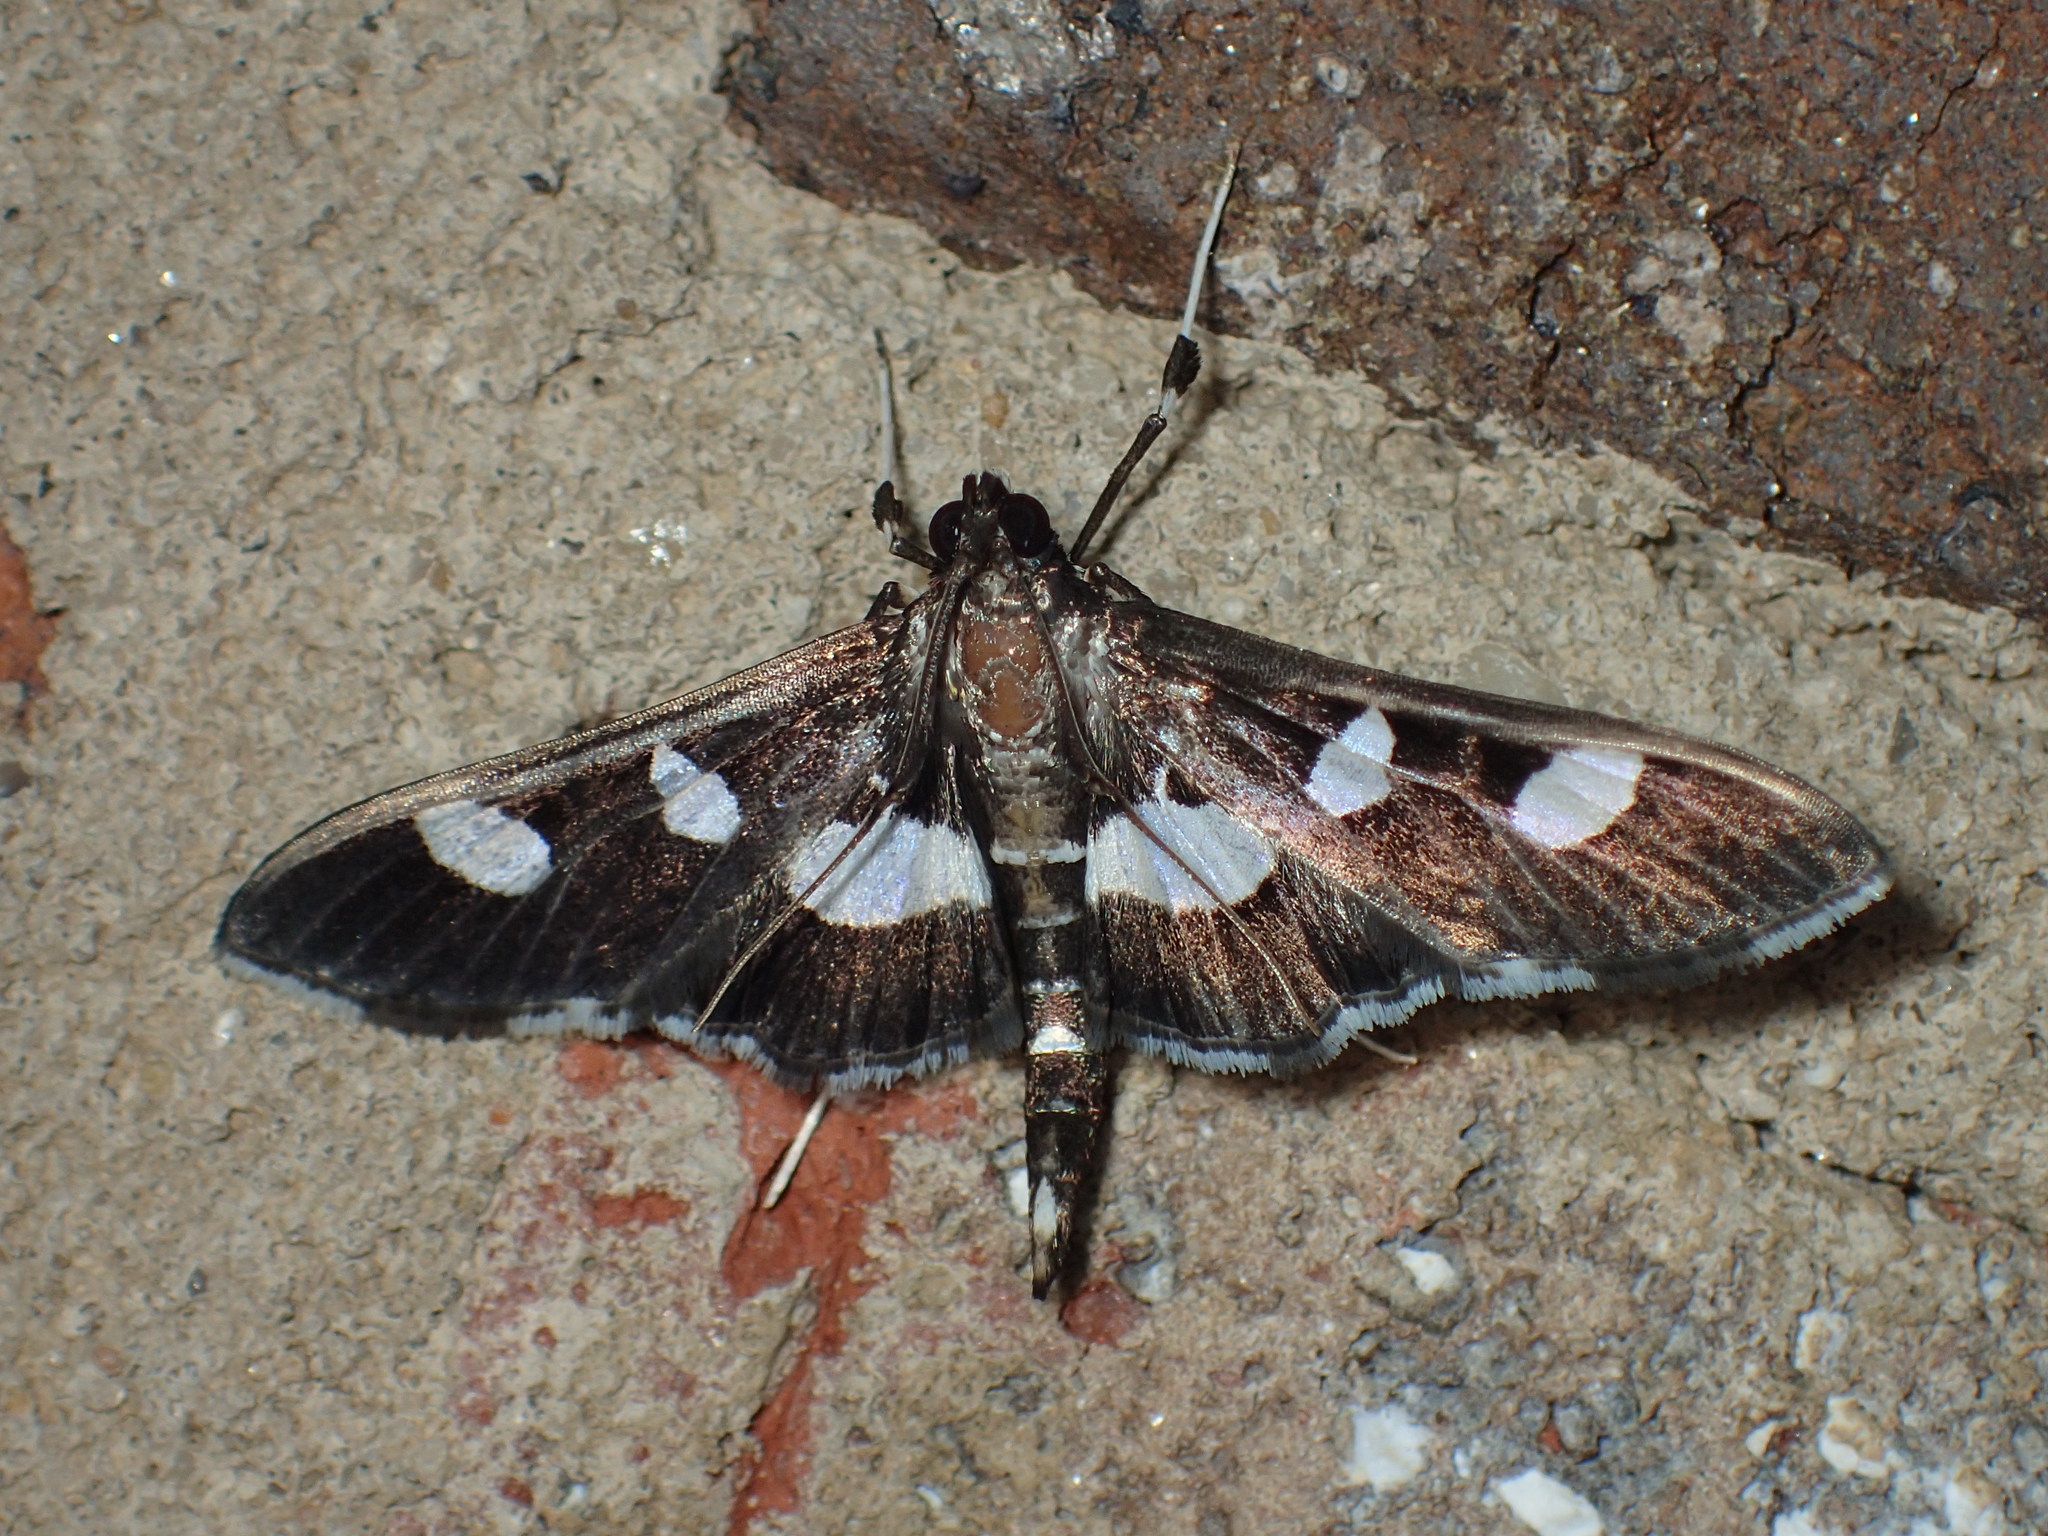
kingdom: Animalia
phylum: Arthropoda
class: Insecta
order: Lepidoptera
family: Crambidae
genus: Desmia
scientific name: Desmia
